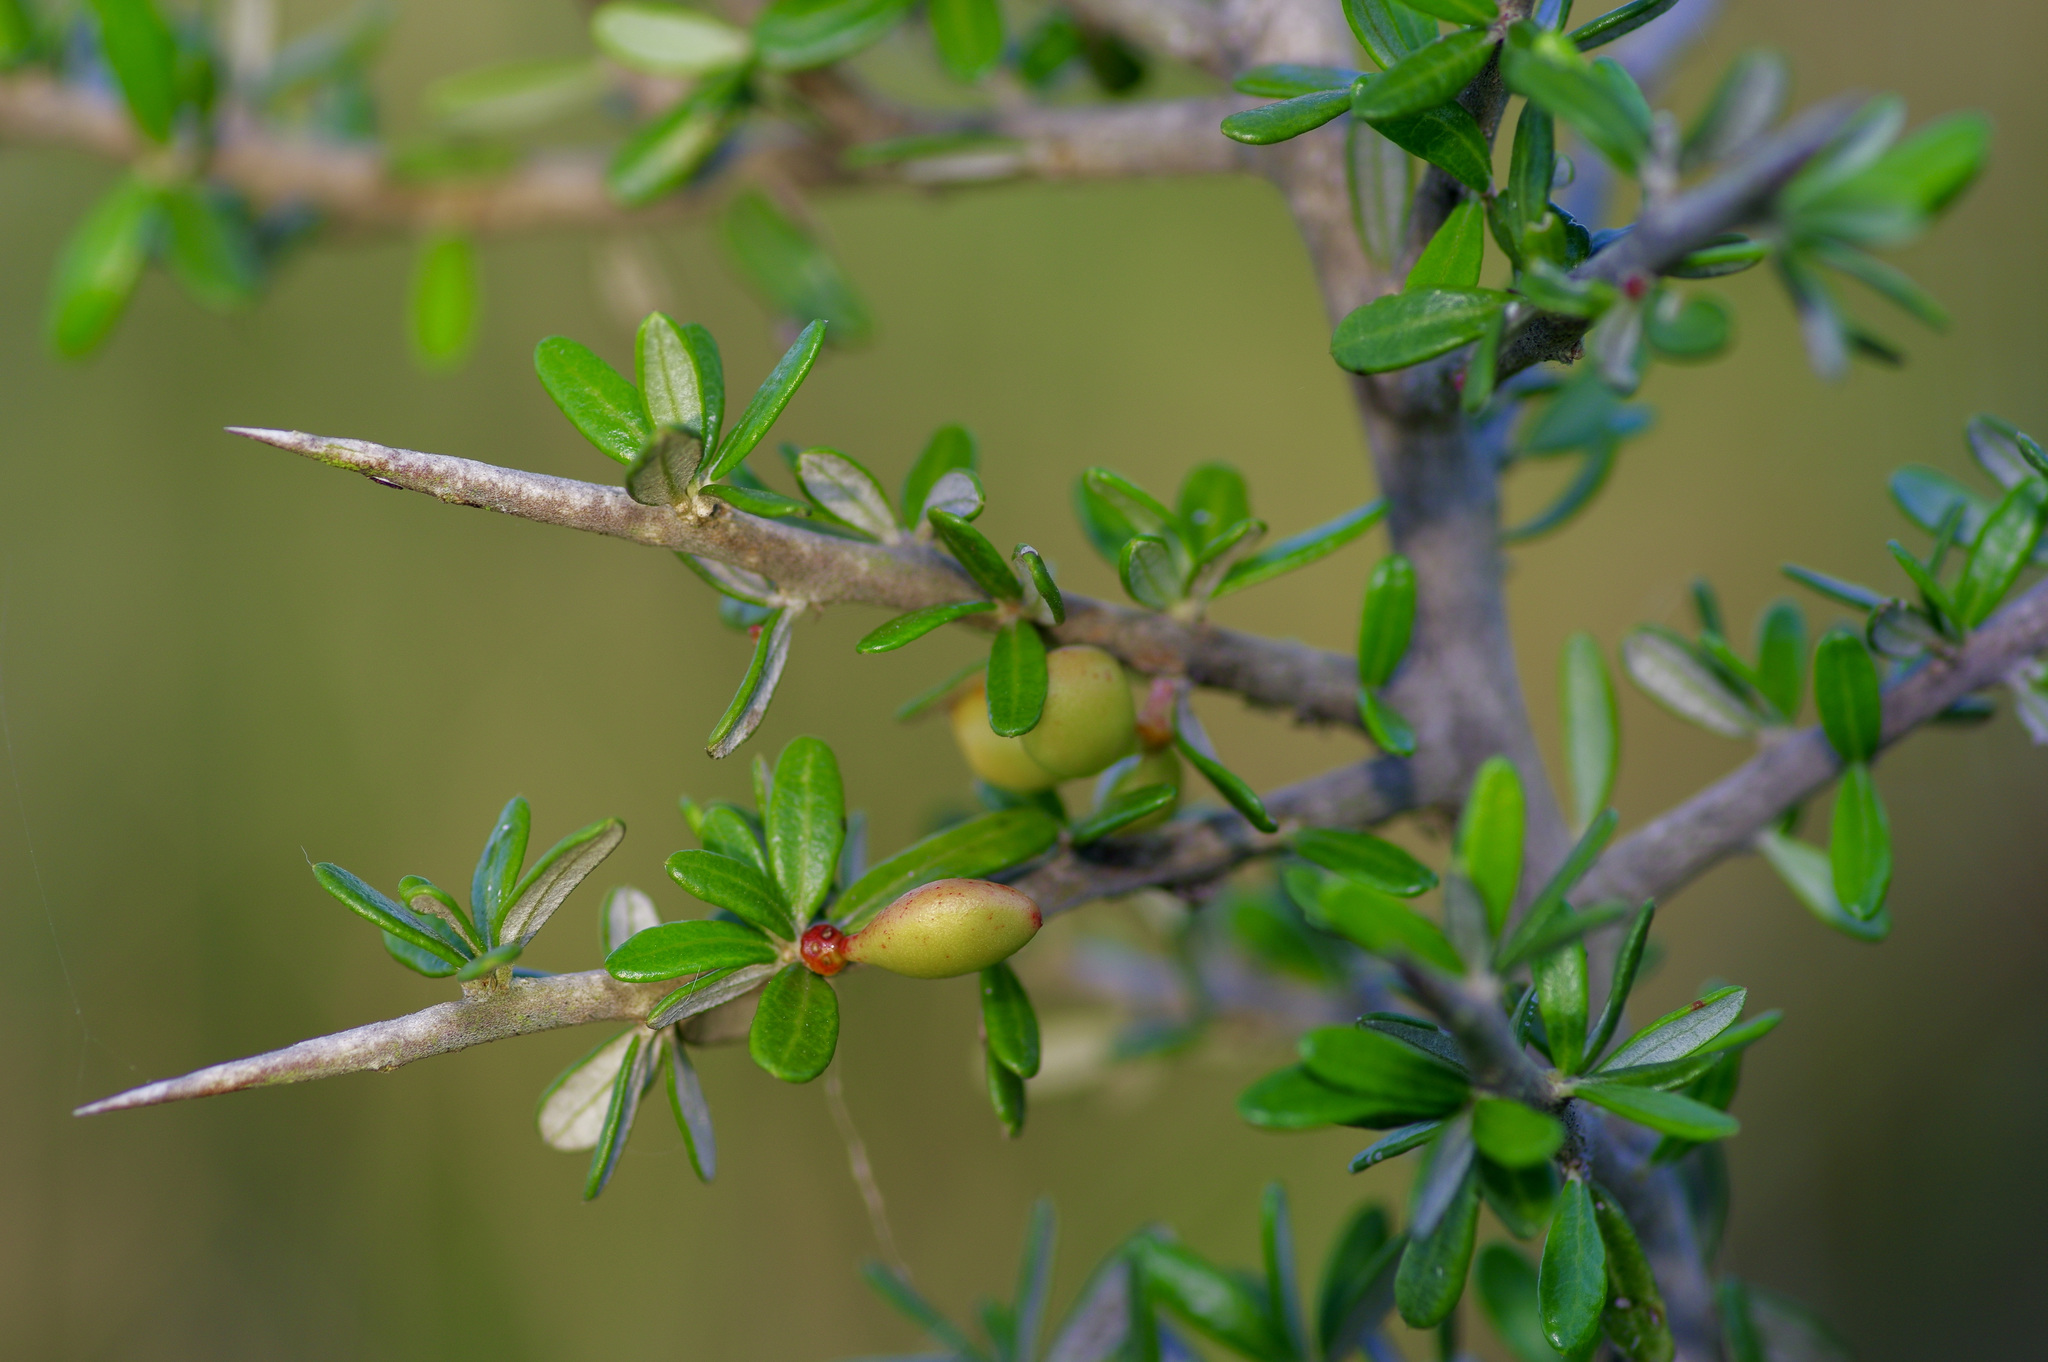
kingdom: Plantae
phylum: Tracheophyta
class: Magnoliopsida
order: Sapindales
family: Simaroubaceae
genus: Castela
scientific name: Castela erecta
